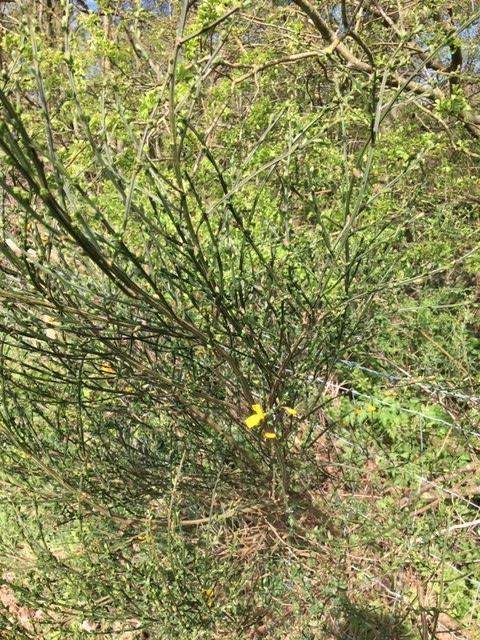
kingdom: Plantae
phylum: Tracheophyta
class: Magnoliopsida
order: Fabales
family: Fabaceae
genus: Cytisus
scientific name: Cytisus scoparius
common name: Scotch broom
